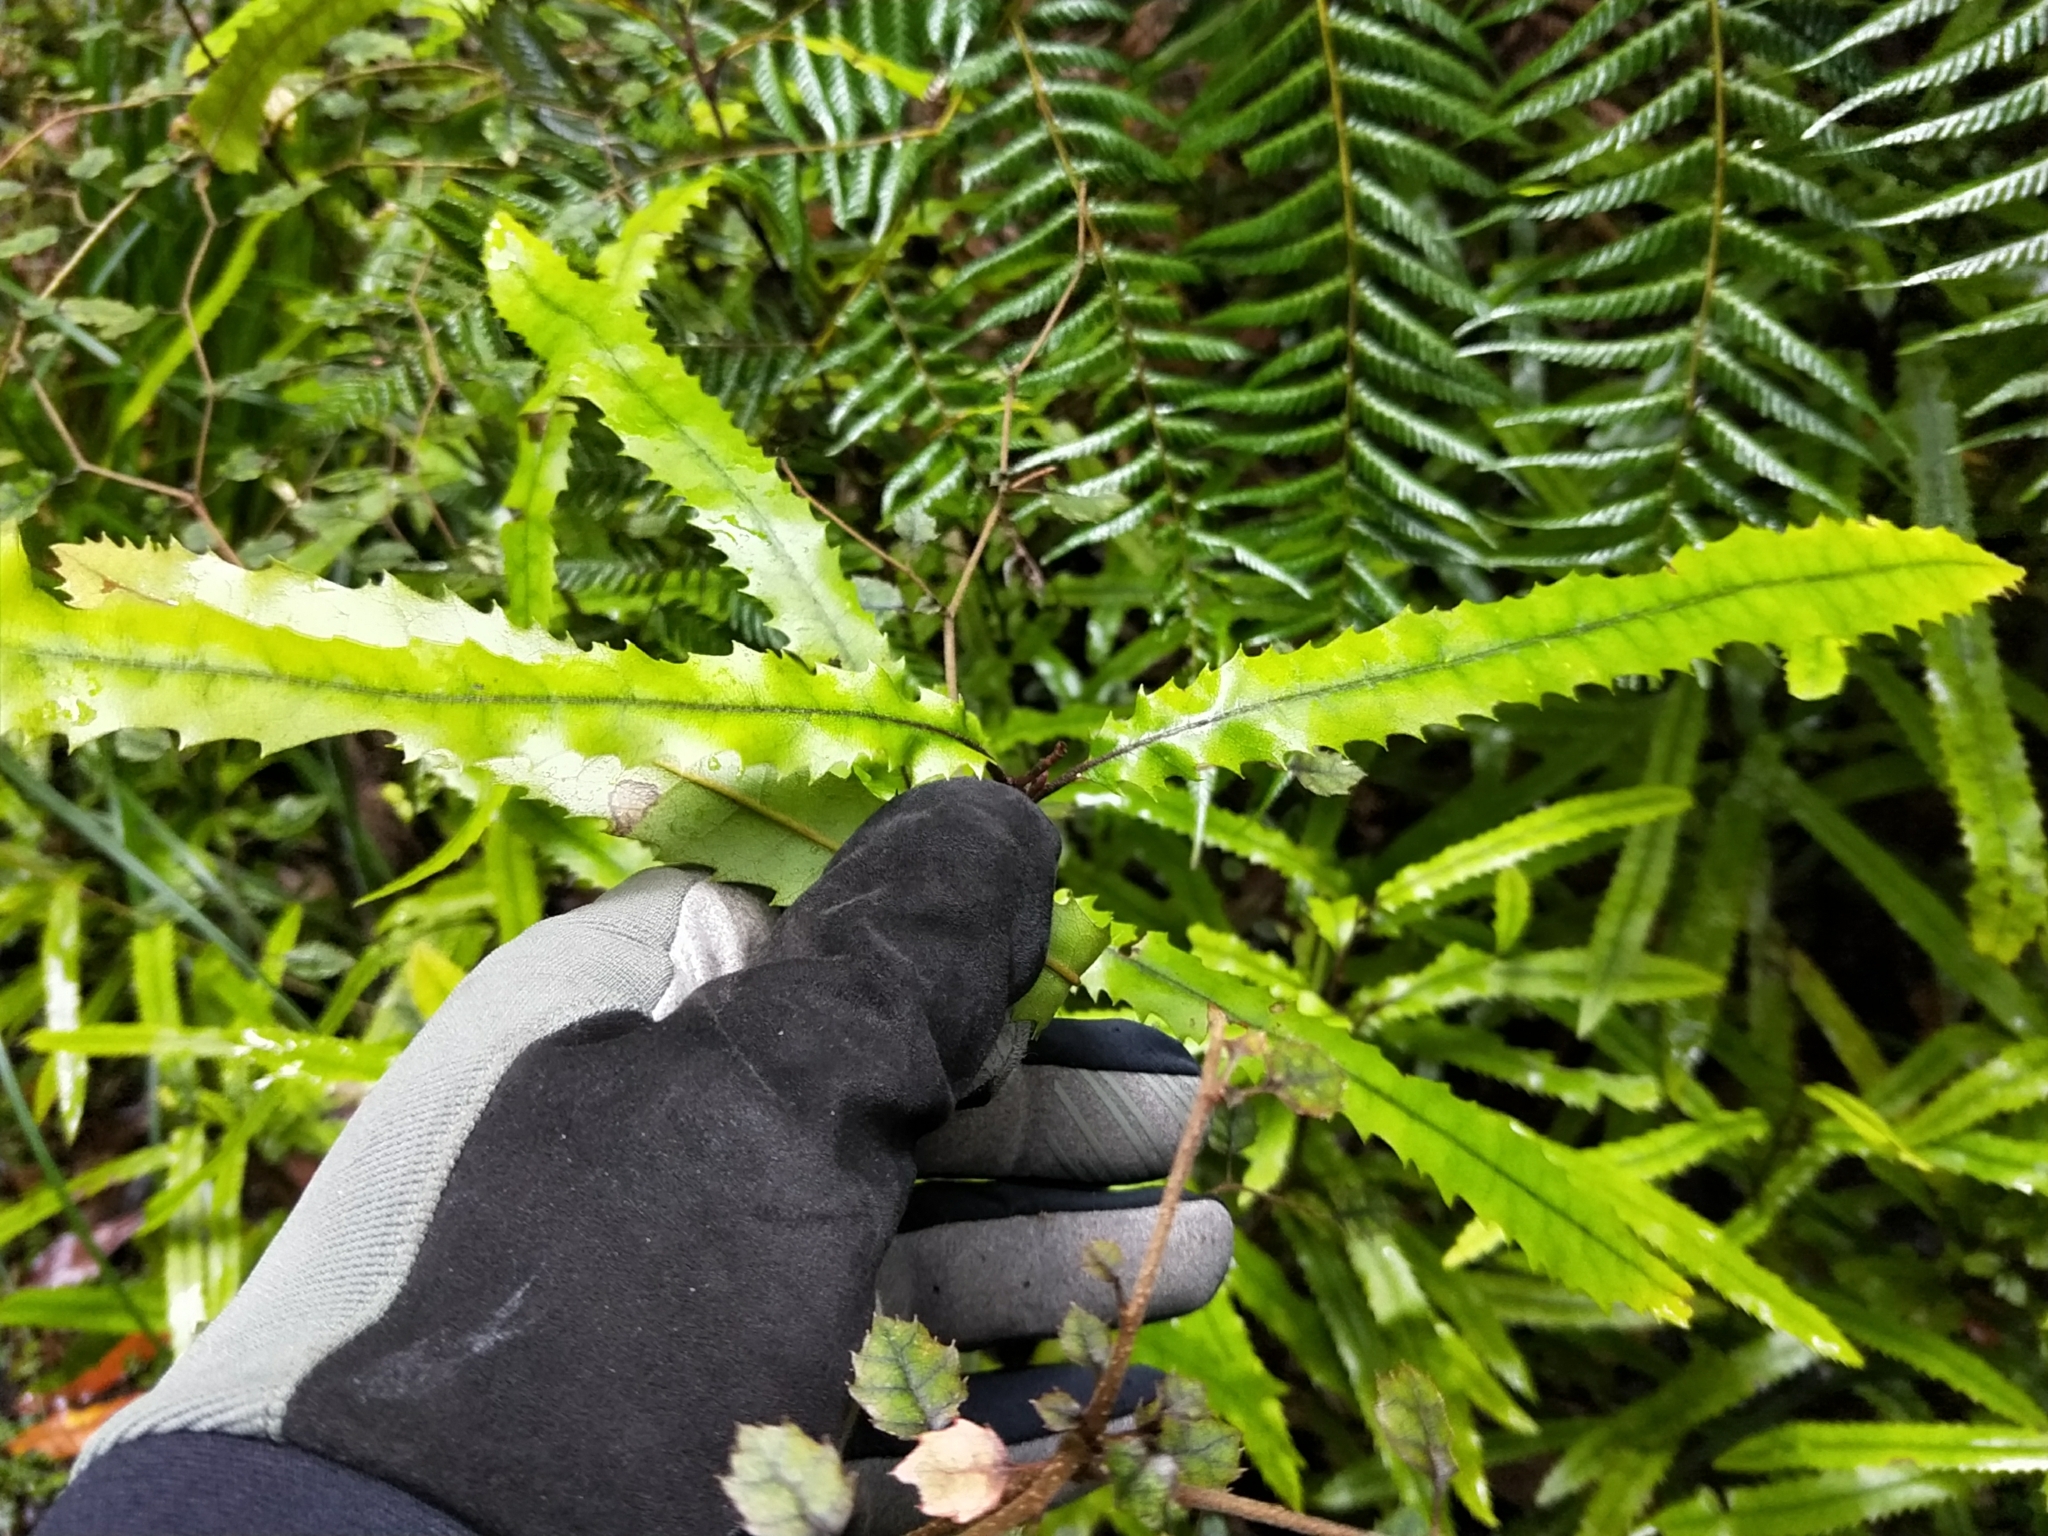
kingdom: Plantae
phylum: Tracheophyta
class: Magnoliopsida
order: Proteales
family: Proteaceae
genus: Knightia
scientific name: Knightia excelsa
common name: New zealand-honeysuckle
